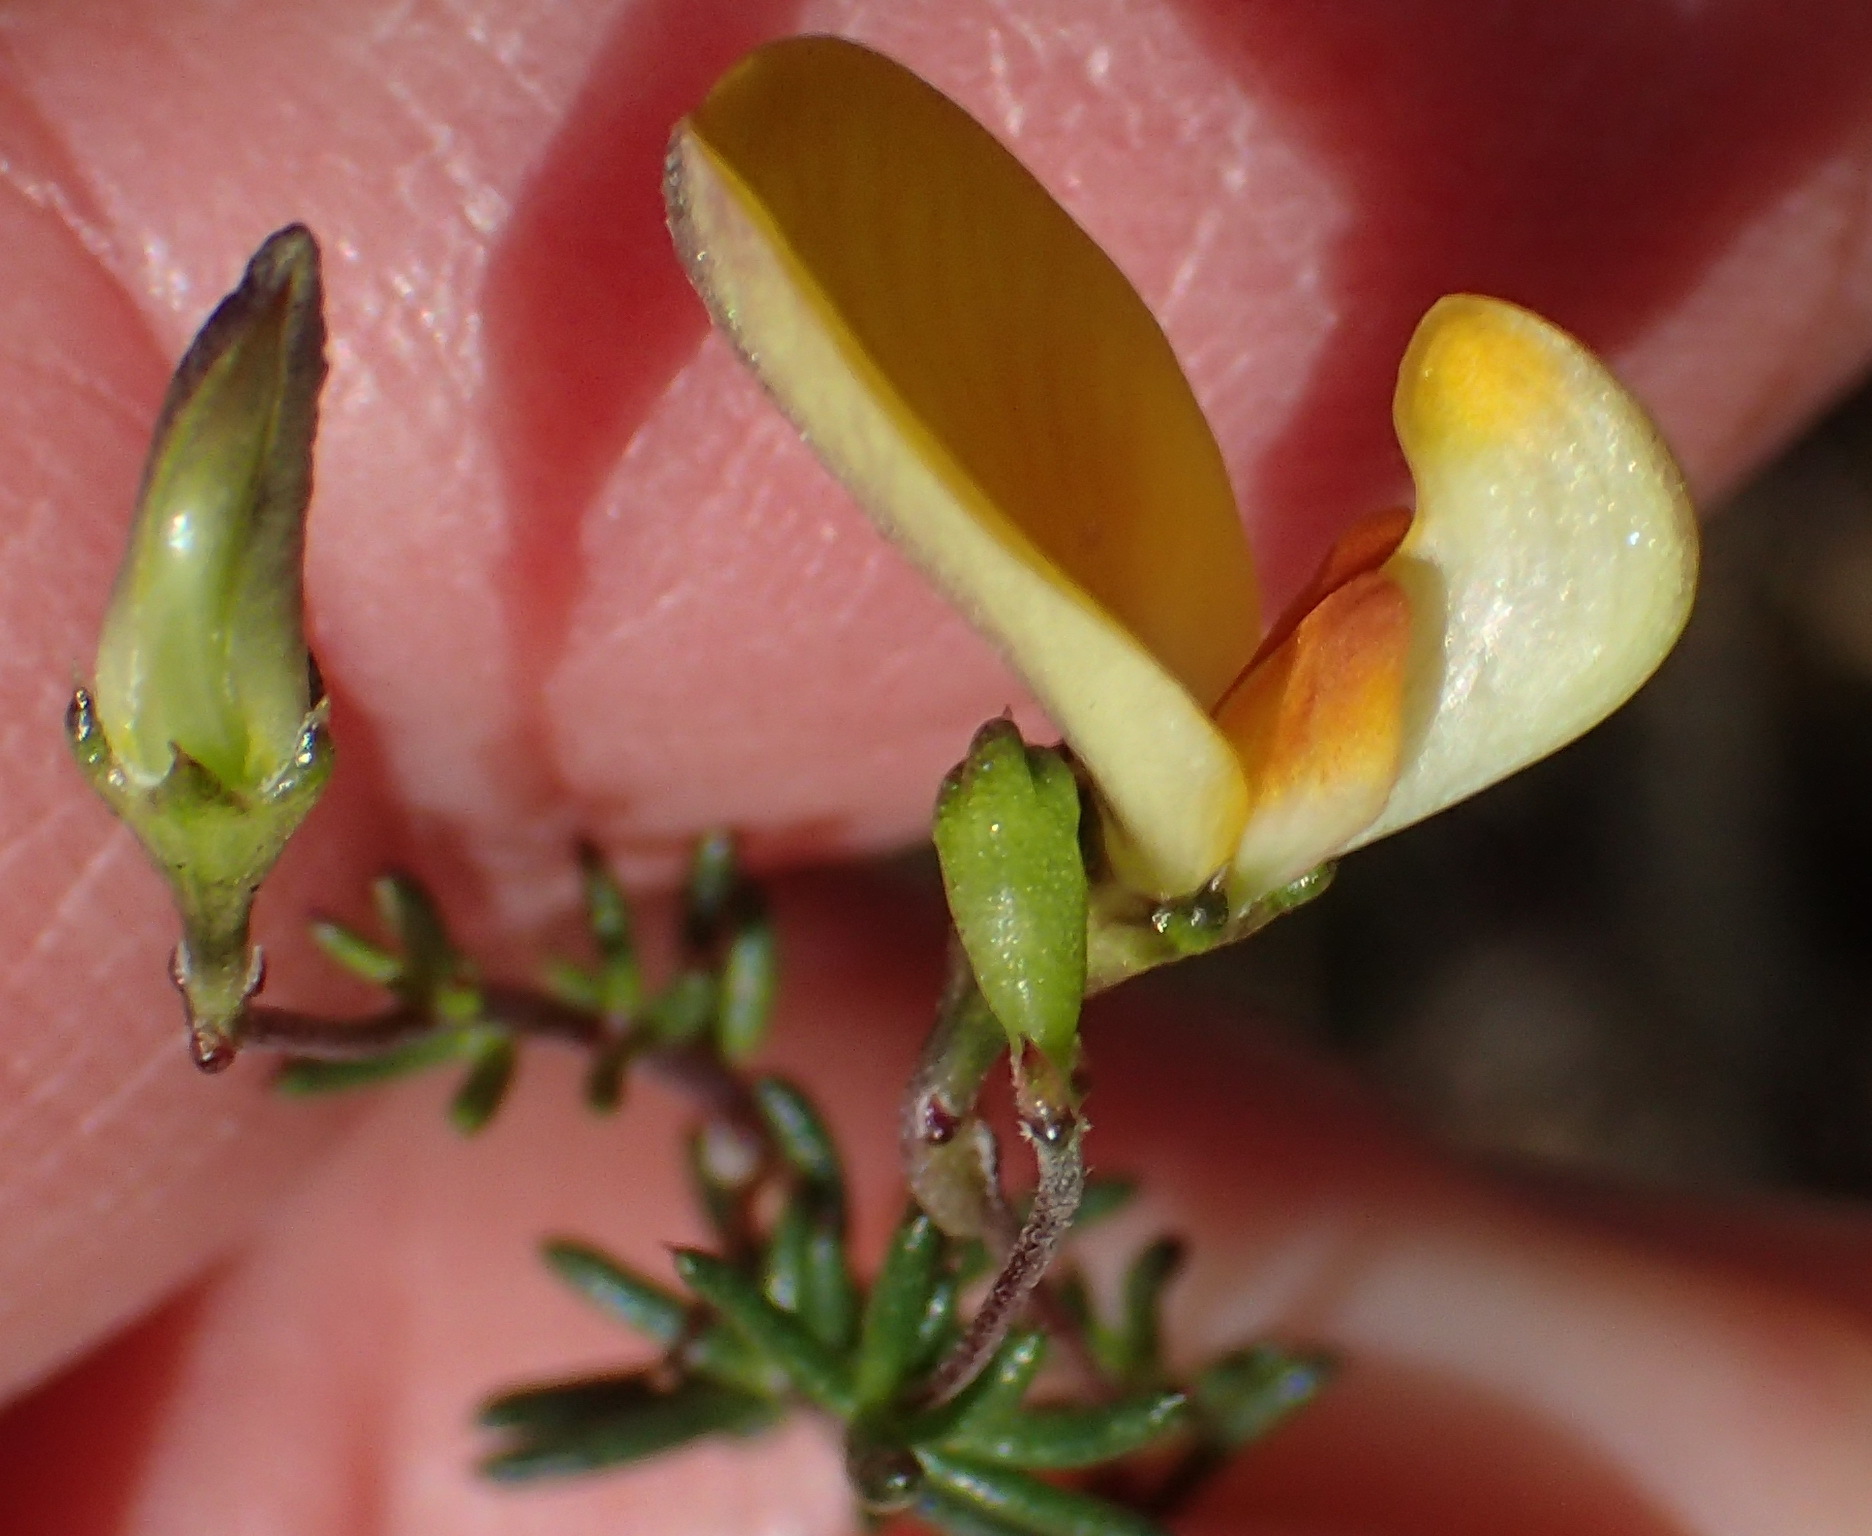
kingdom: Plantae
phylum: Tracheophyta
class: Magnoliopsida
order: Fabales
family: Fabaceae
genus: Aspalathus
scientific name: Aspalathus biflora
